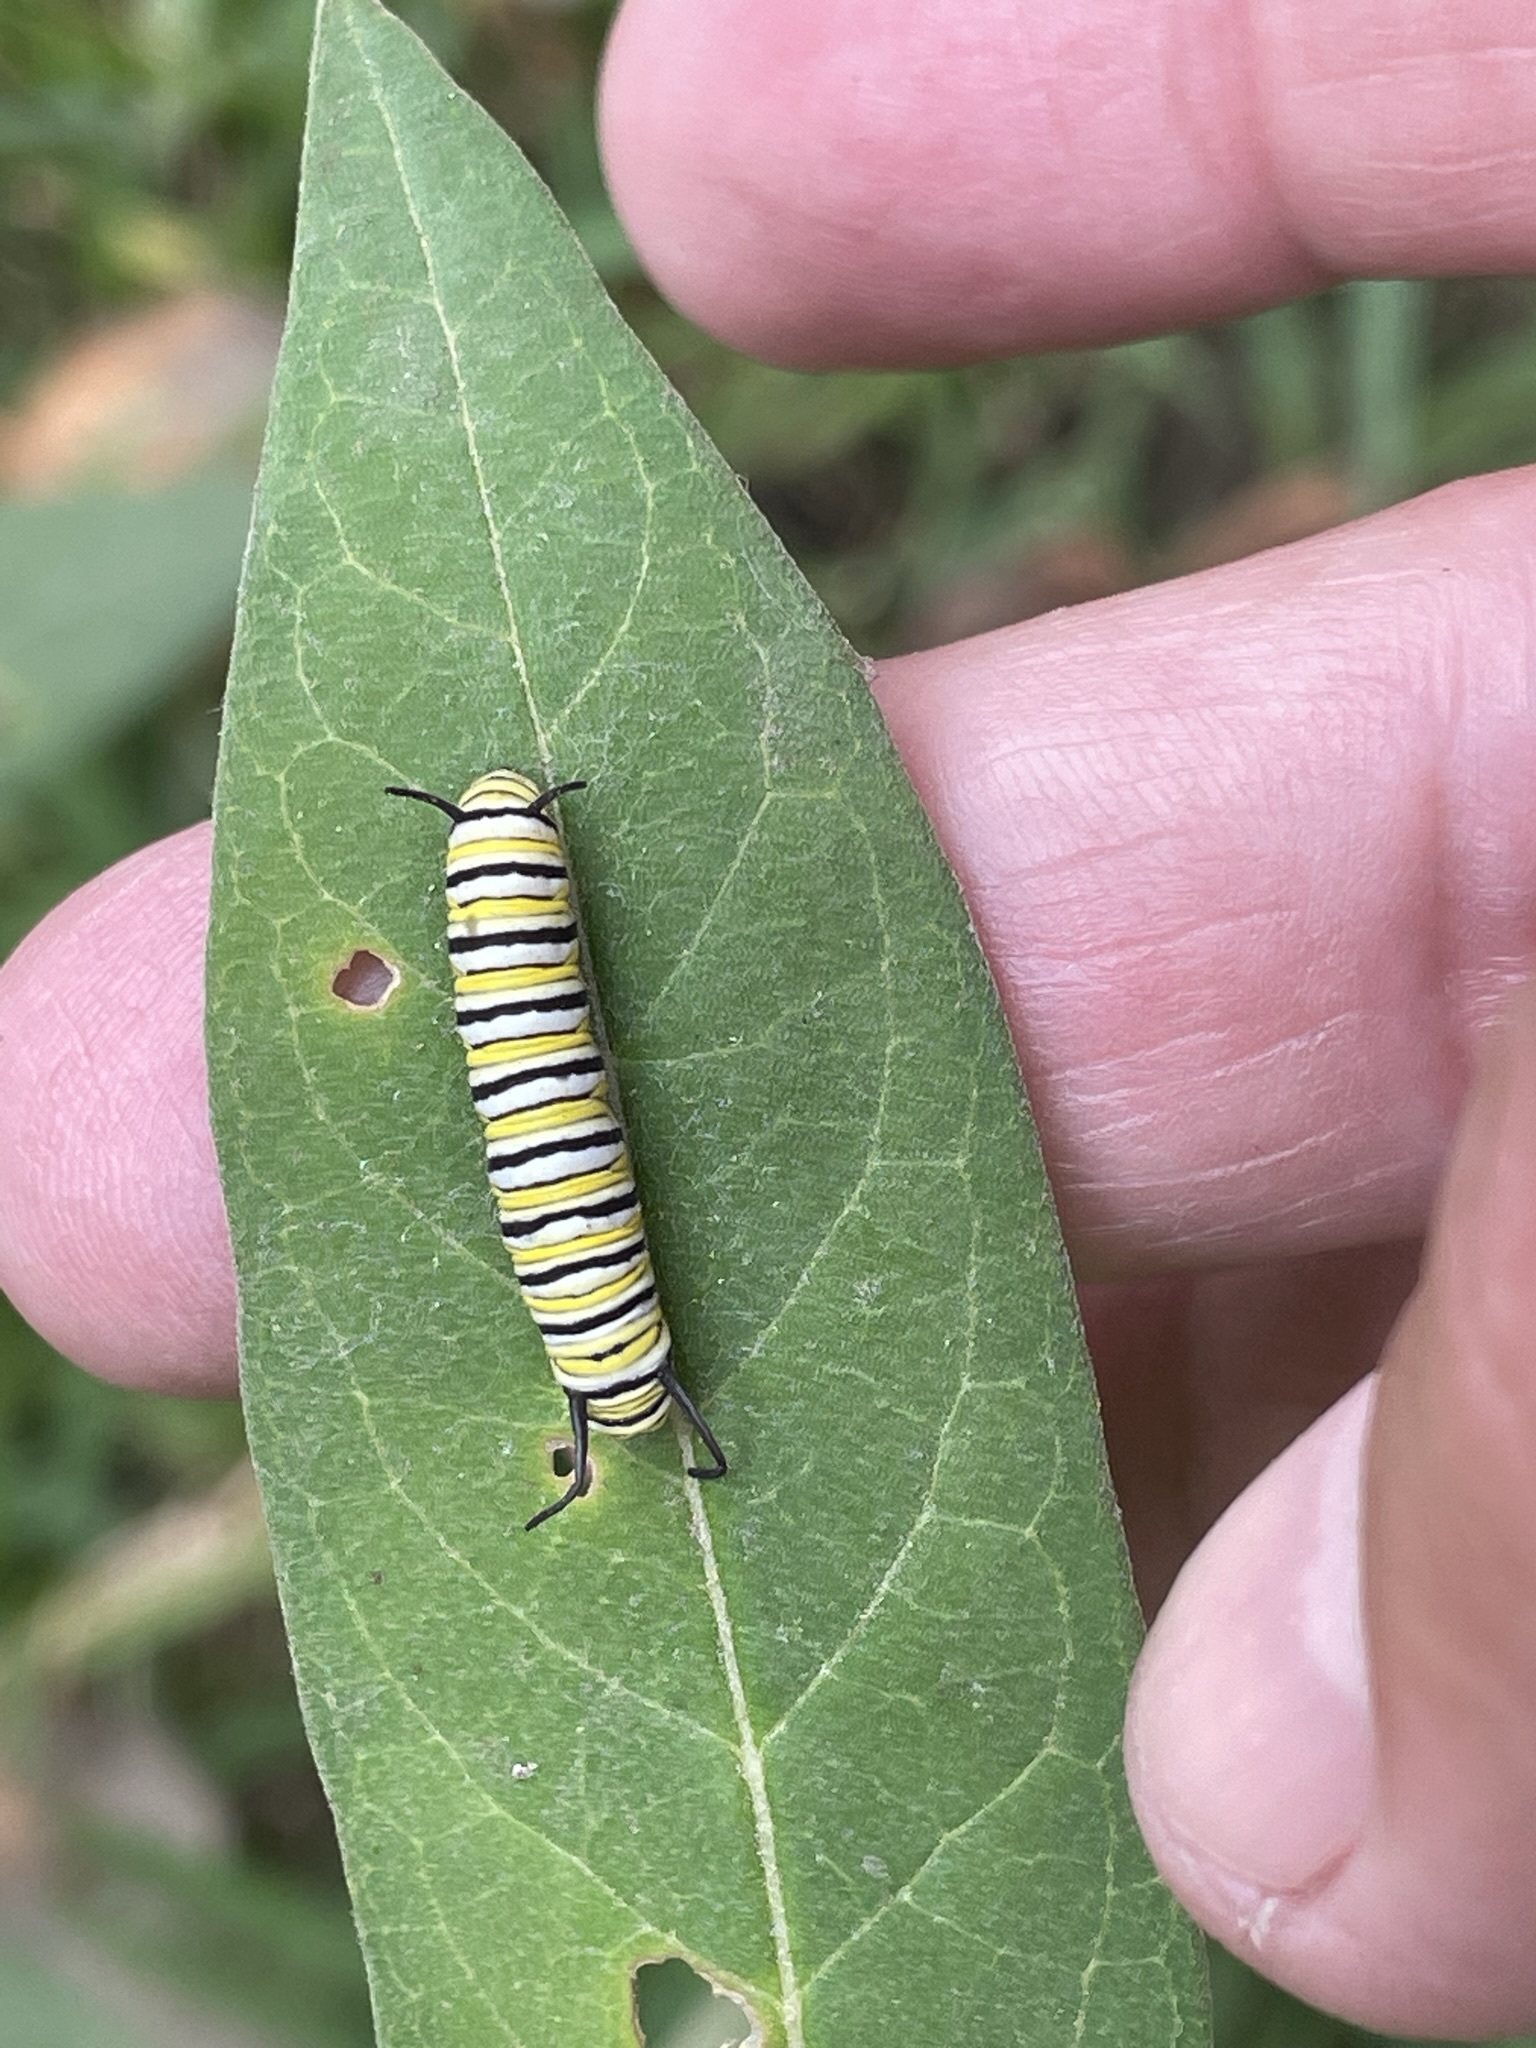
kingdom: Animalia
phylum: Arthropoda
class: Insecta
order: Lepidoptera
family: Nymphalidae
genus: Danaus
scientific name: Danaus plexippus
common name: Monarch
